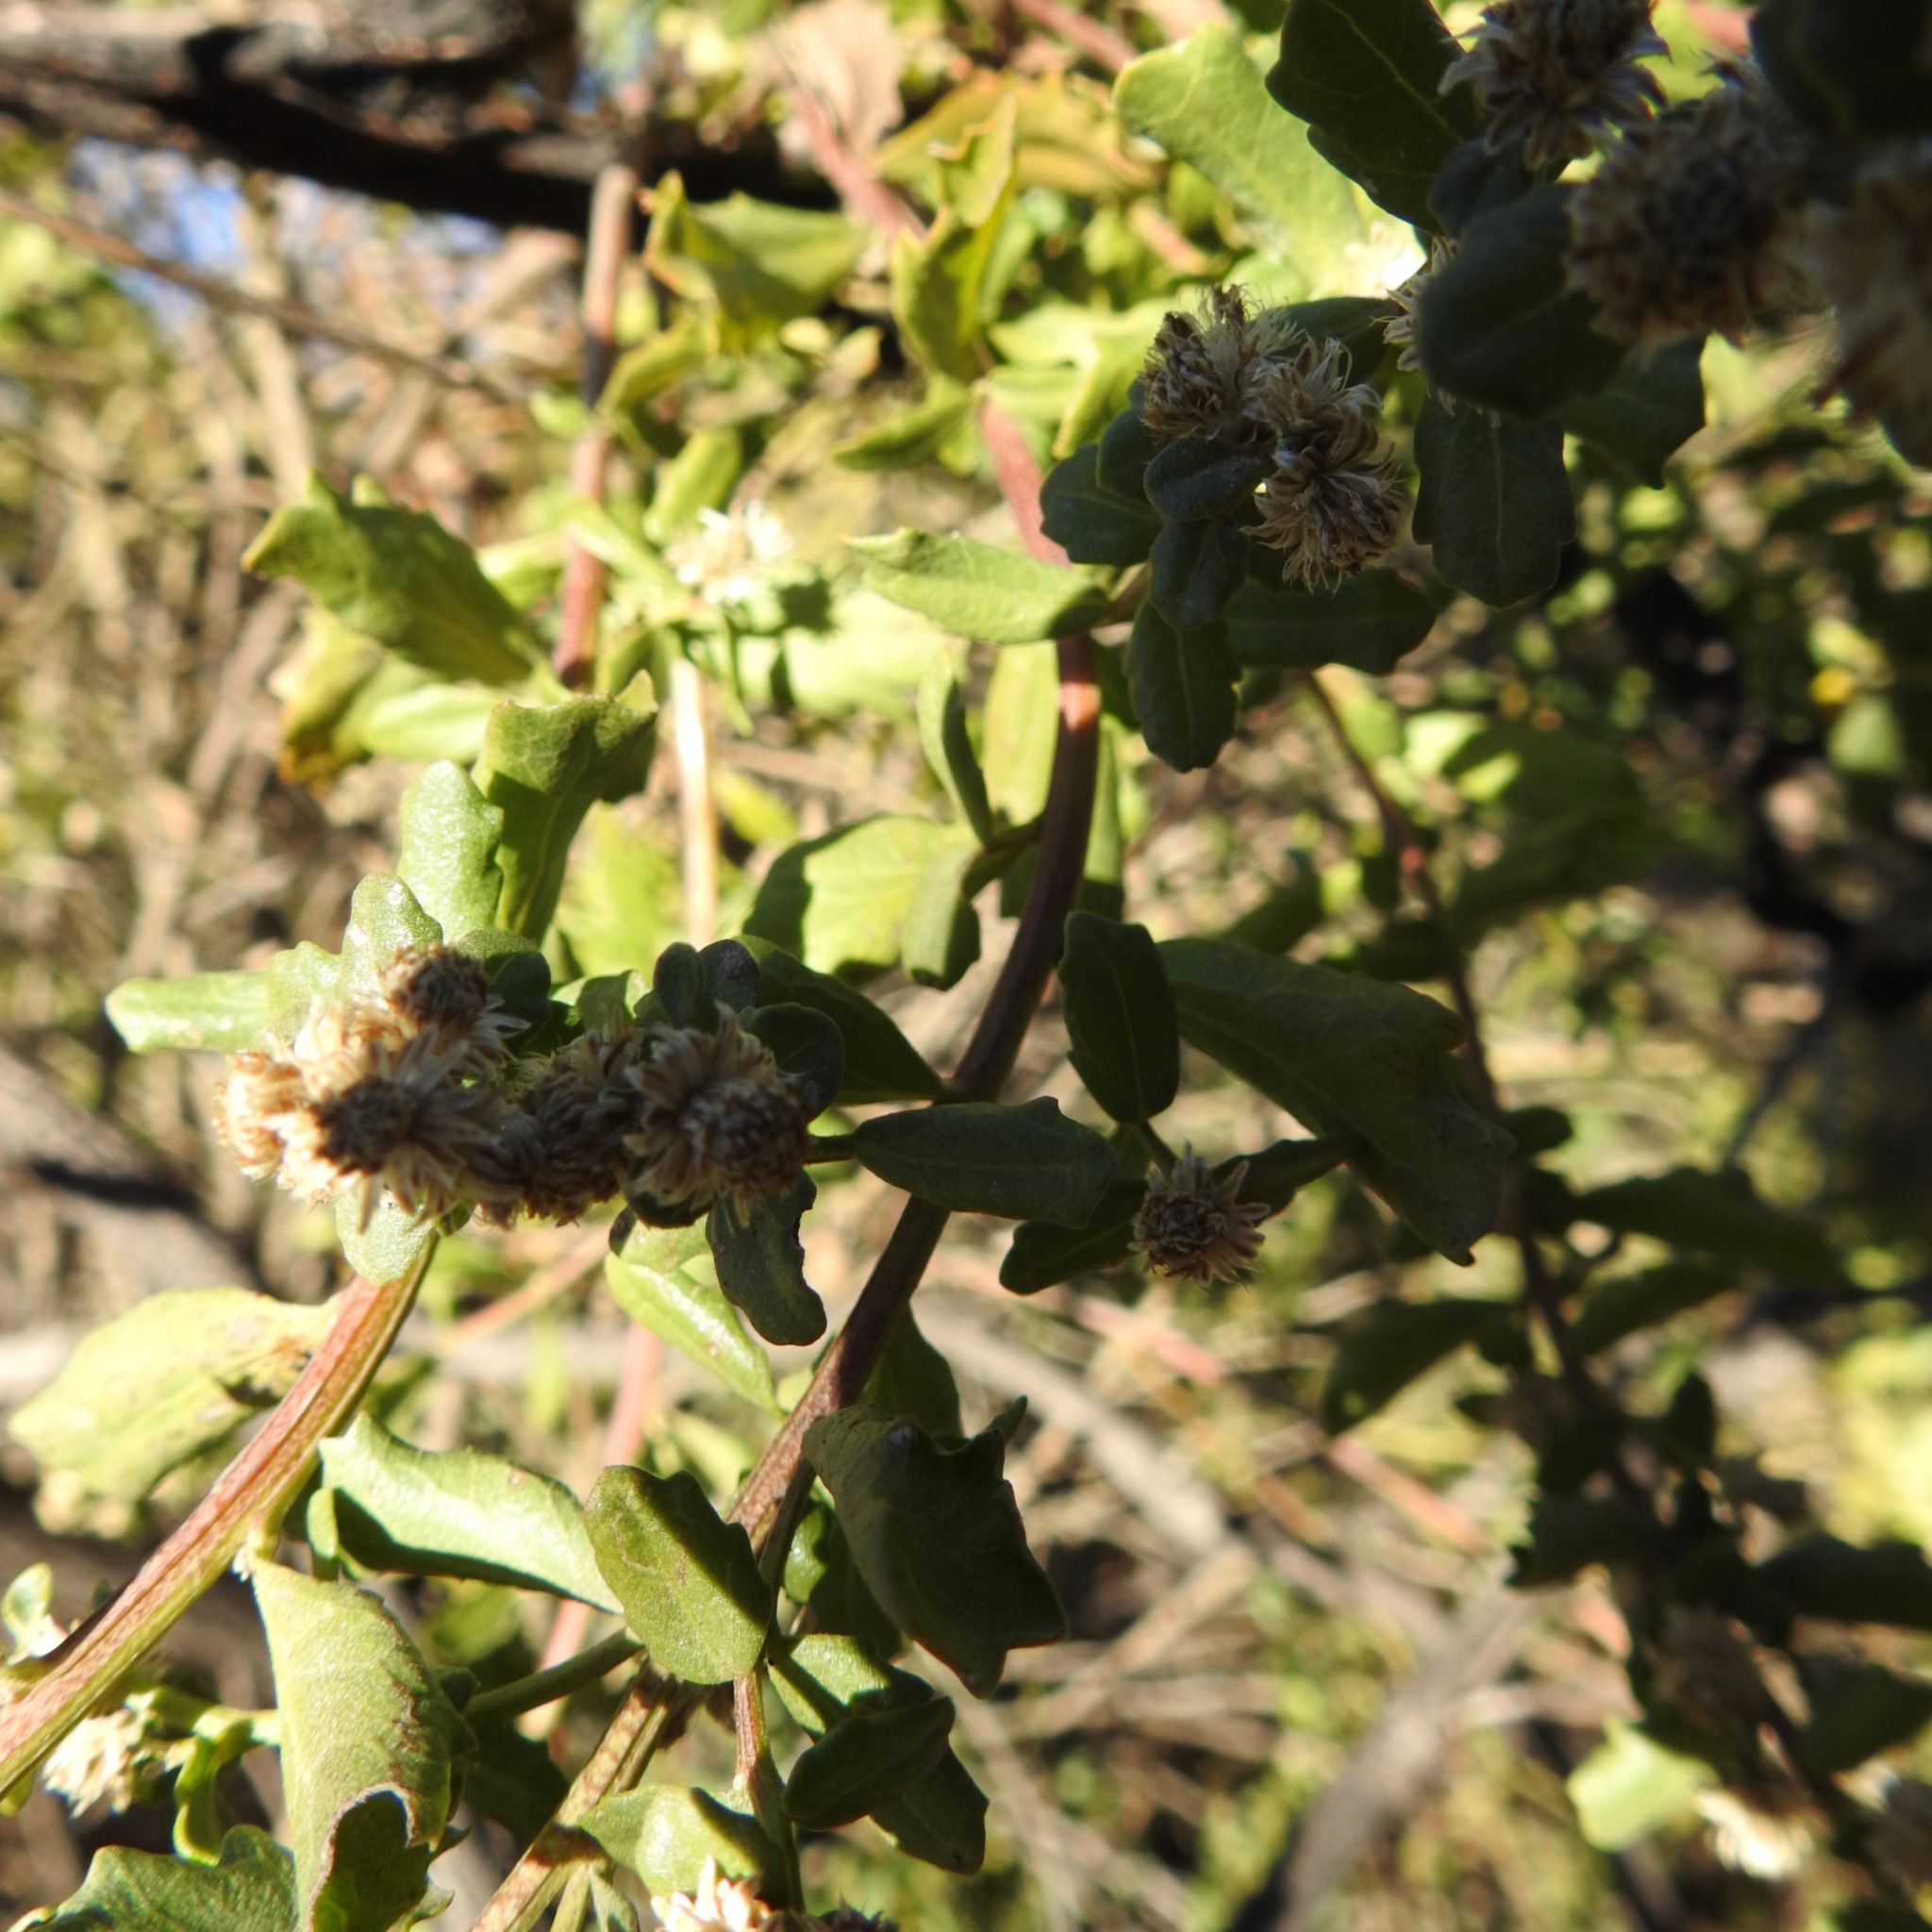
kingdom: Plantae
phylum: Tracheophyta
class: Magnoliopsida
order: Asterales
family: Asteraceae
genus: Baccharis
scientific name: Baccharis pilularis
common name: Coyotebrush
